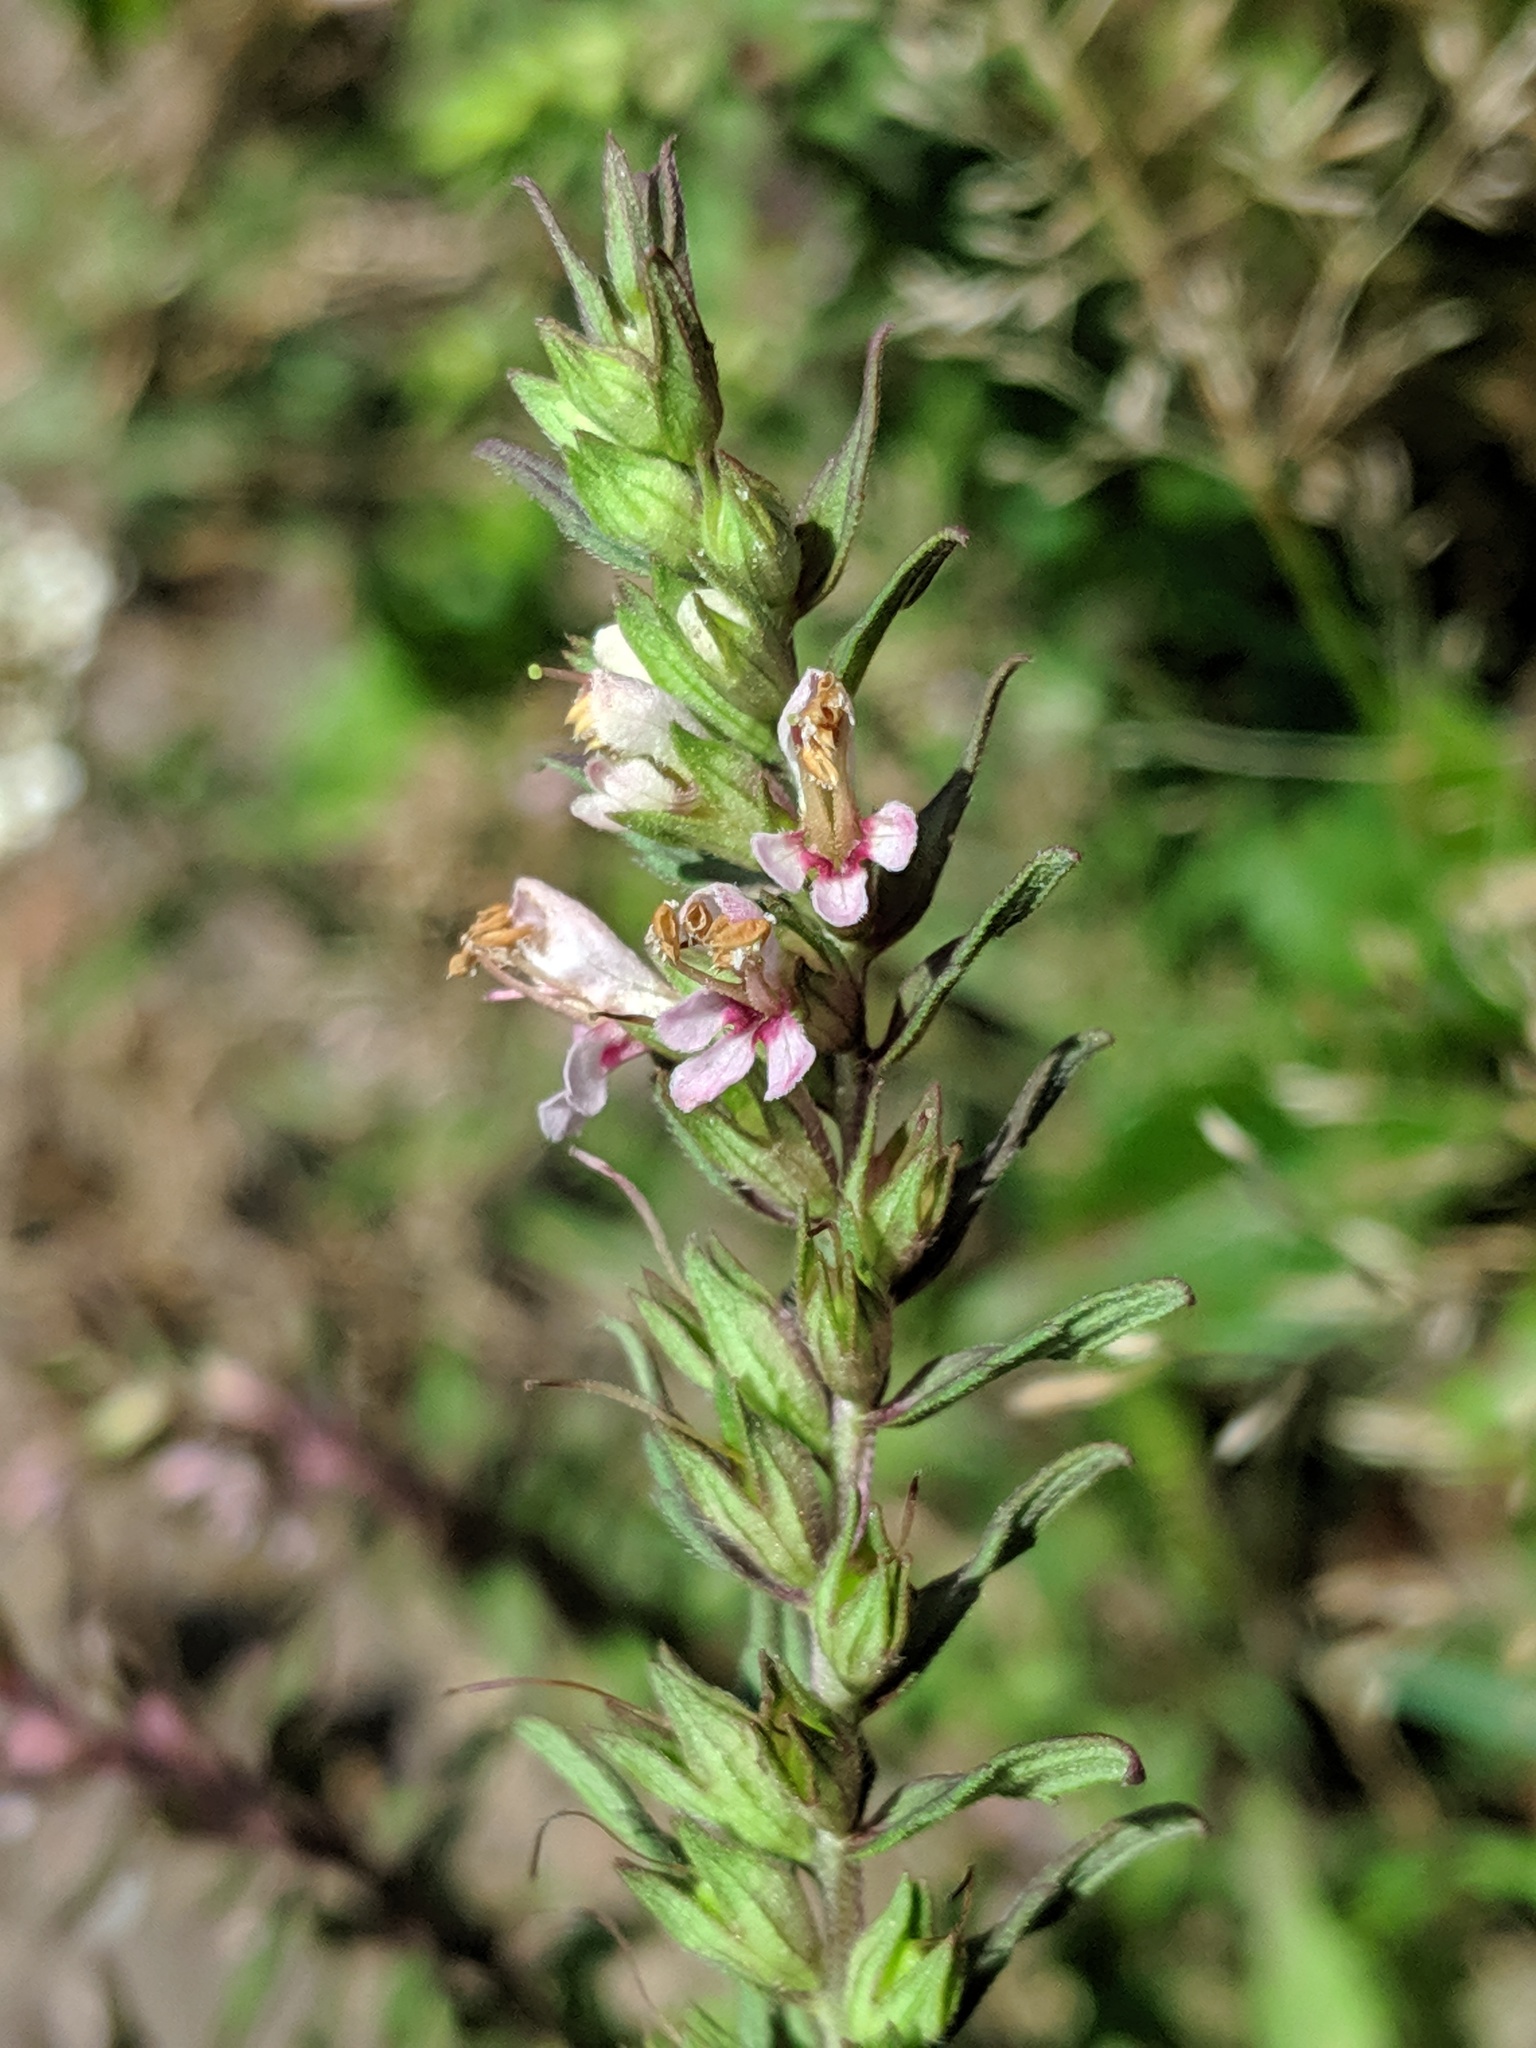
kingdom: Plantae
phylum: Tracheophyta
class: Magnoliopsida
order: Lamiales
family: Orobanchaceae
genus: Odontites
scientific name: Odontites vulgaris
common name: Broomrape
